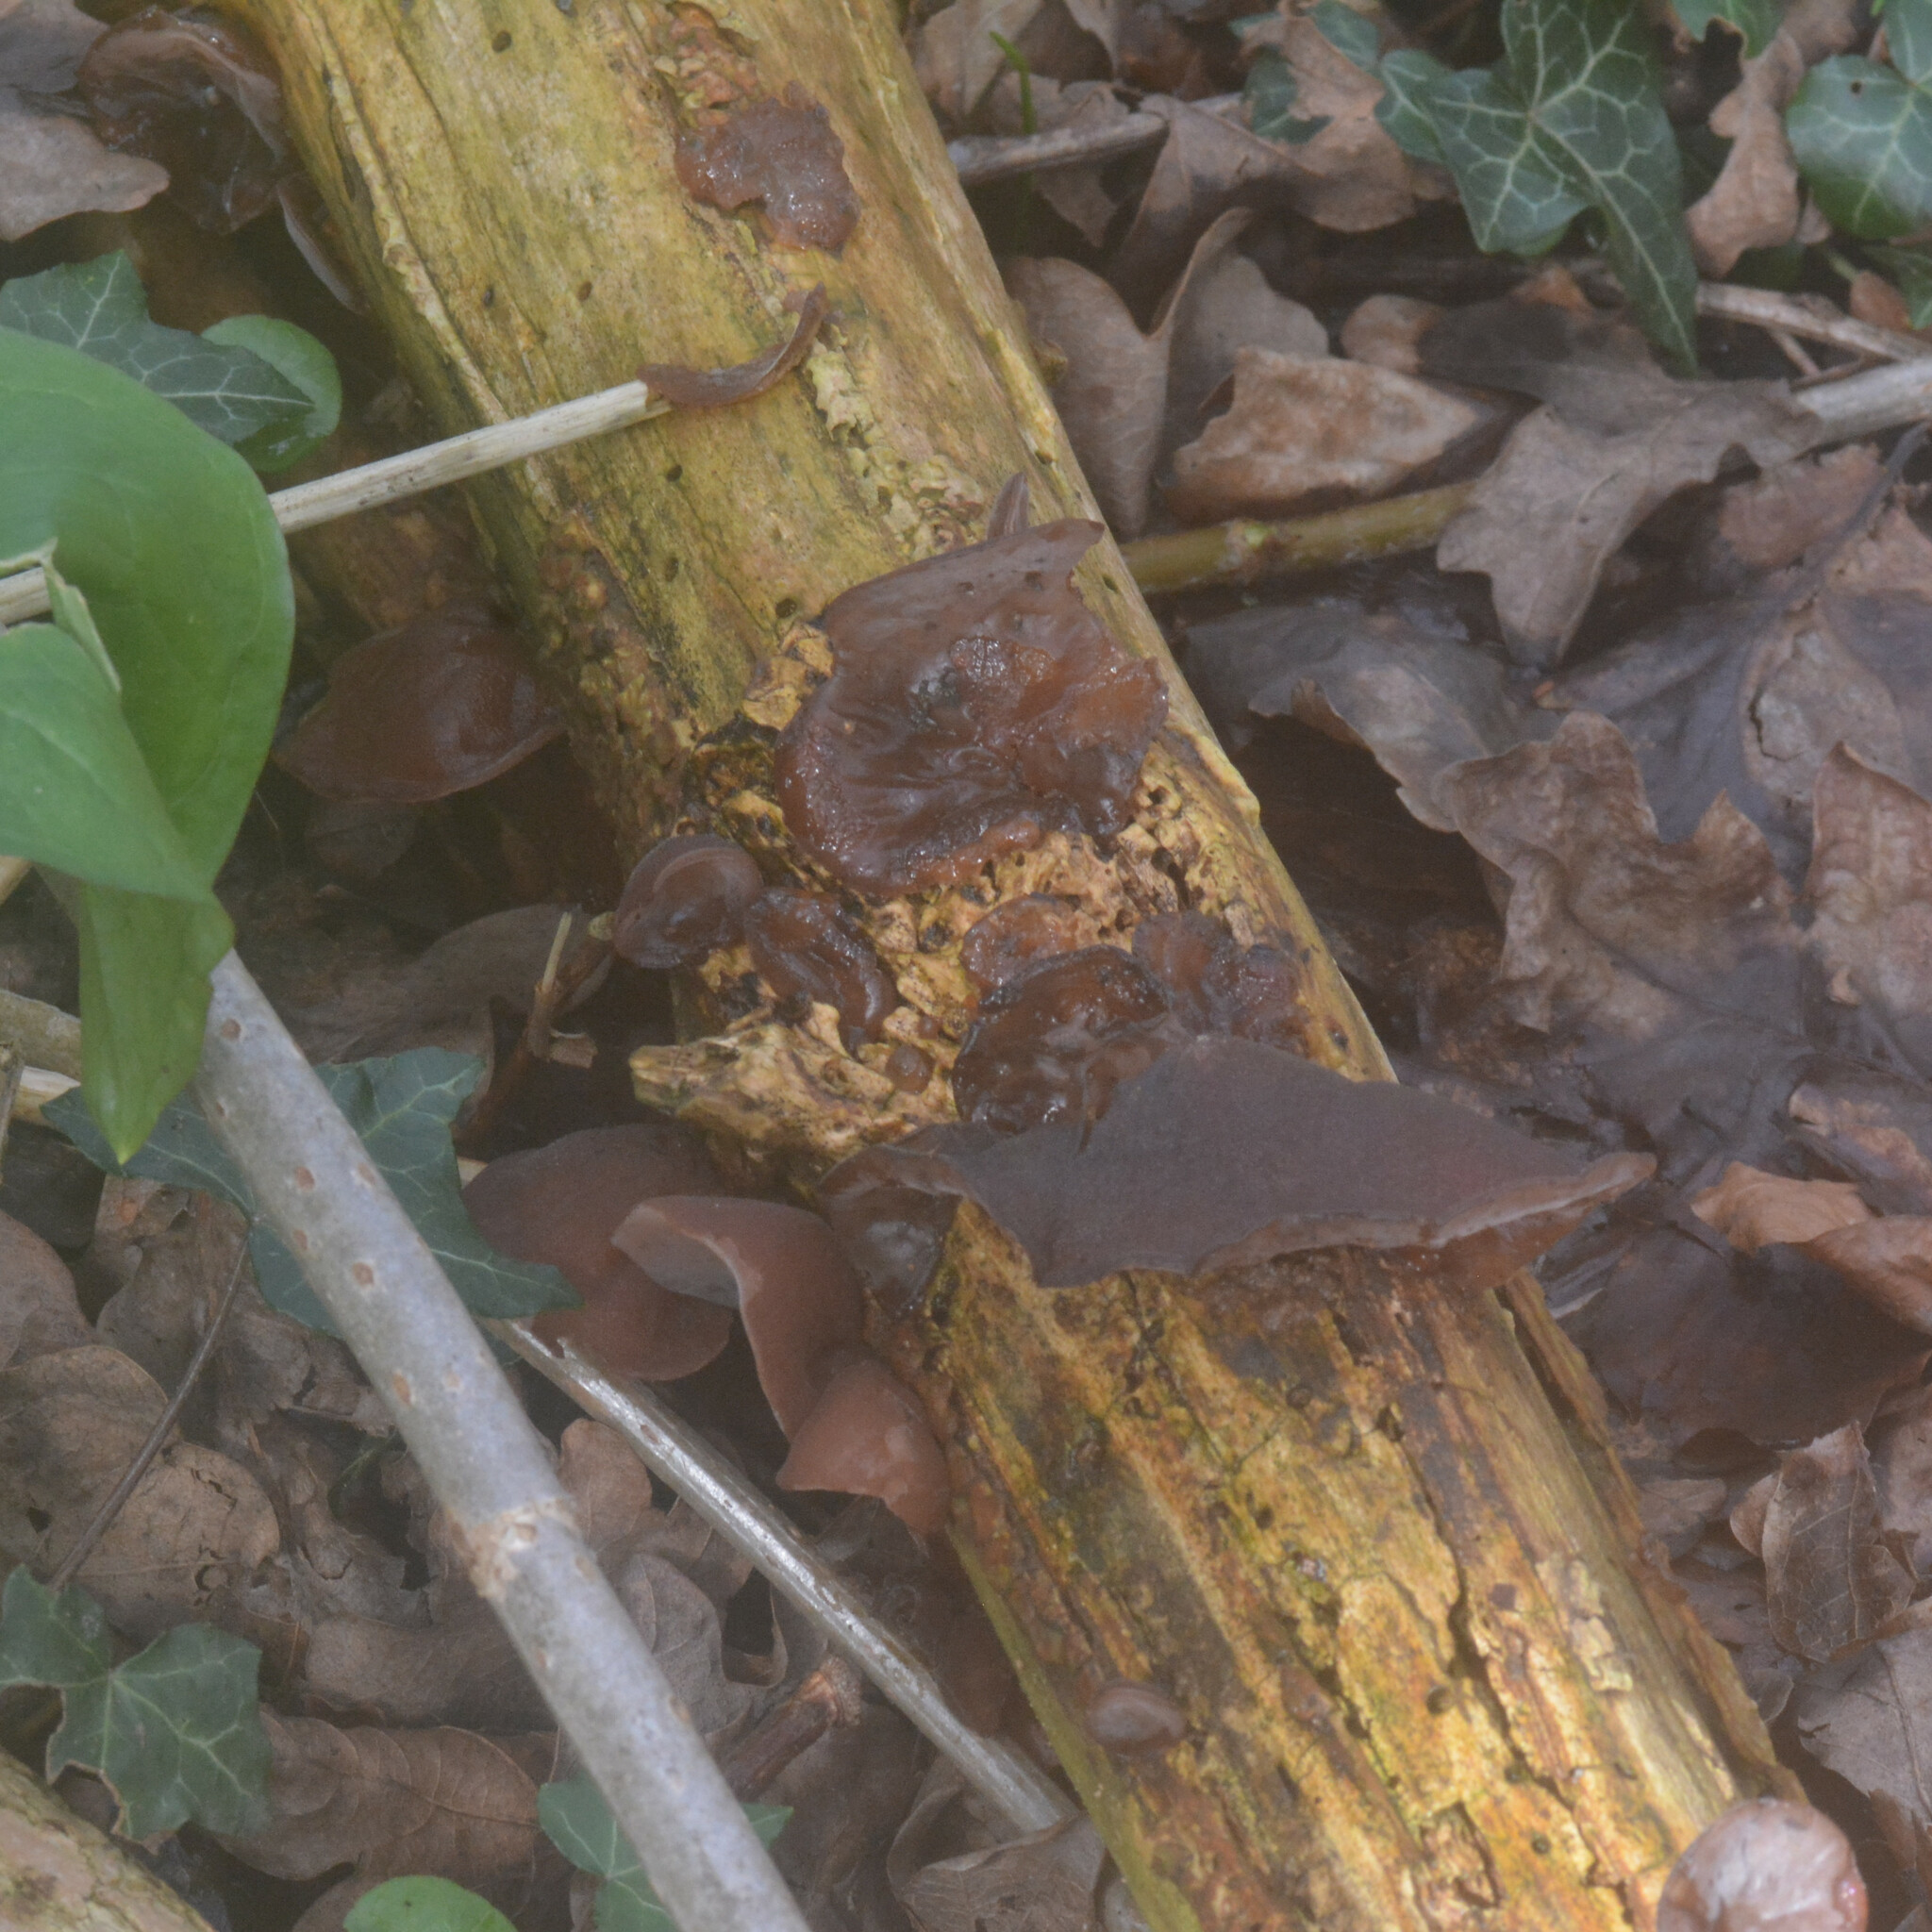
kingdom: Fungi
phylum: Basidiomycota
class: Agaricomycetes
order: Auriculariales
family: Auriculariaceae
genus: Auricularia
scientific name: Auricularia auricula-judae
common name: Jelly ear
